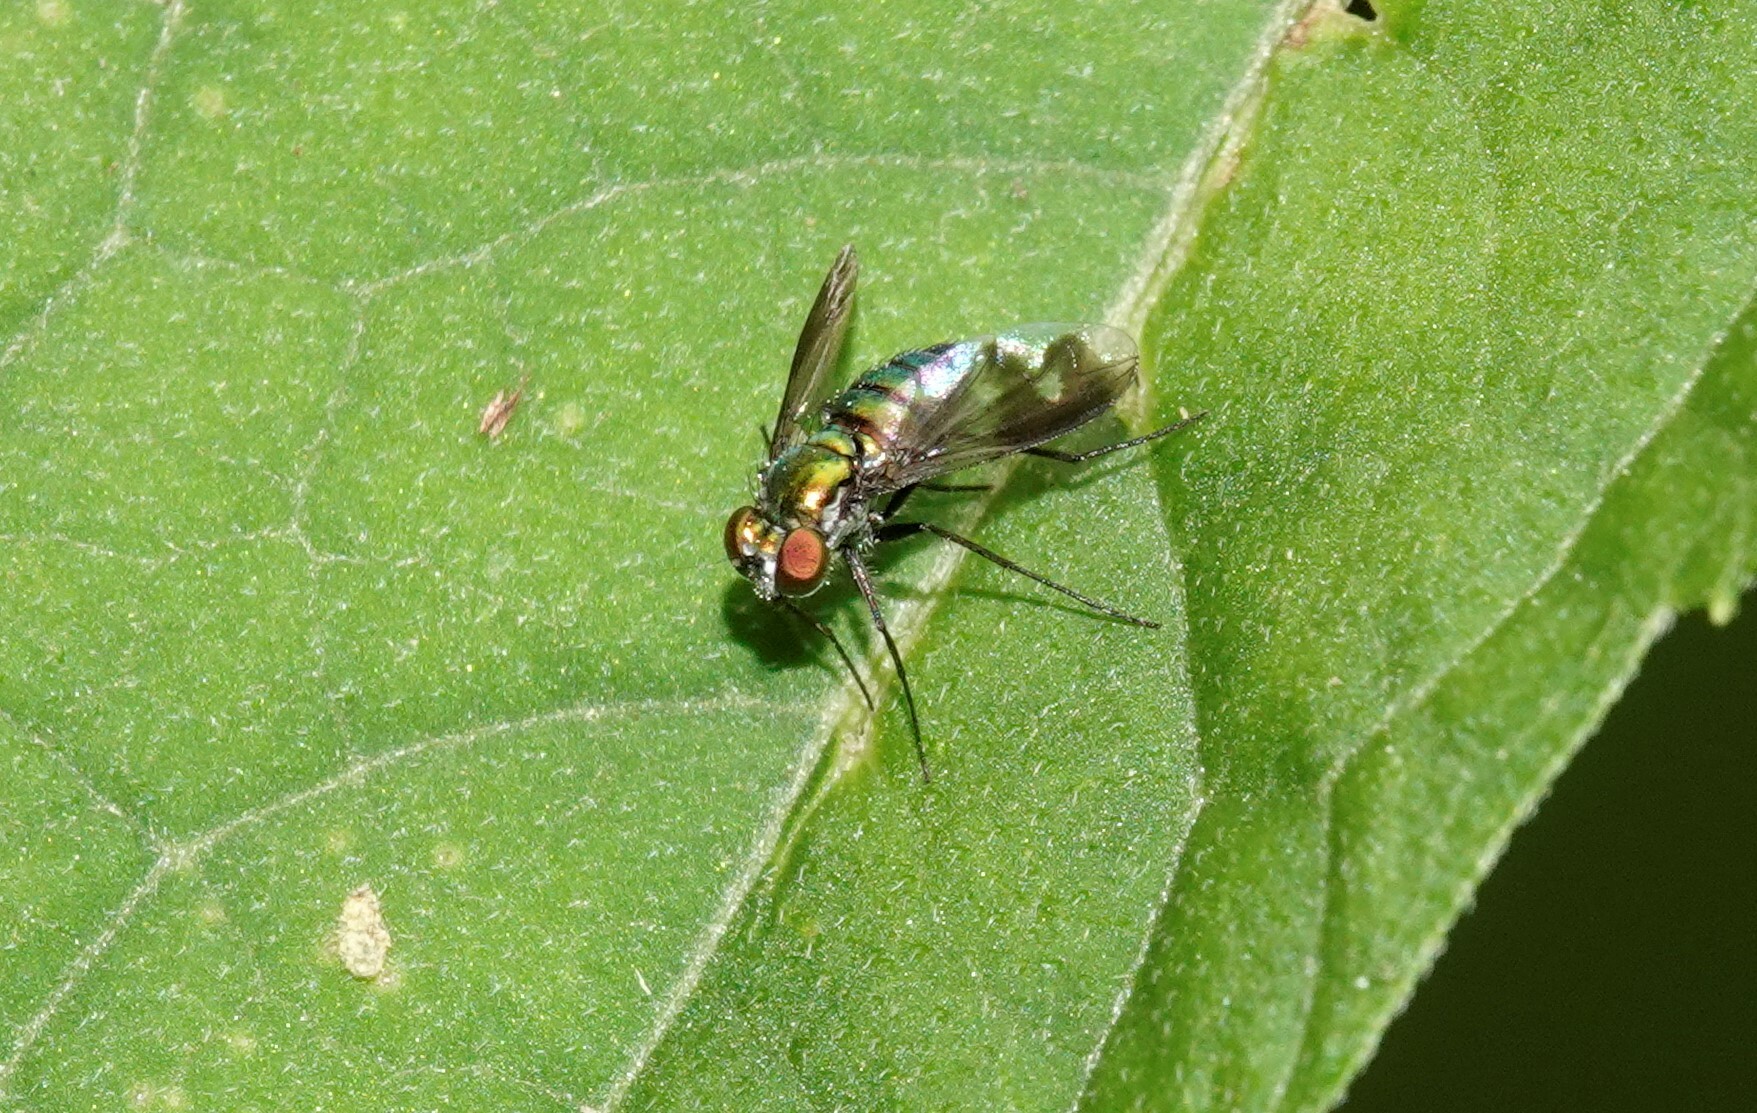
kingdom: Animalia
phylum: Arthropoda
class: Insecta
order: Diptera
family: Dolichopodidae
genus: Condylostylus
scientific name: Condylostylus patibulatus
